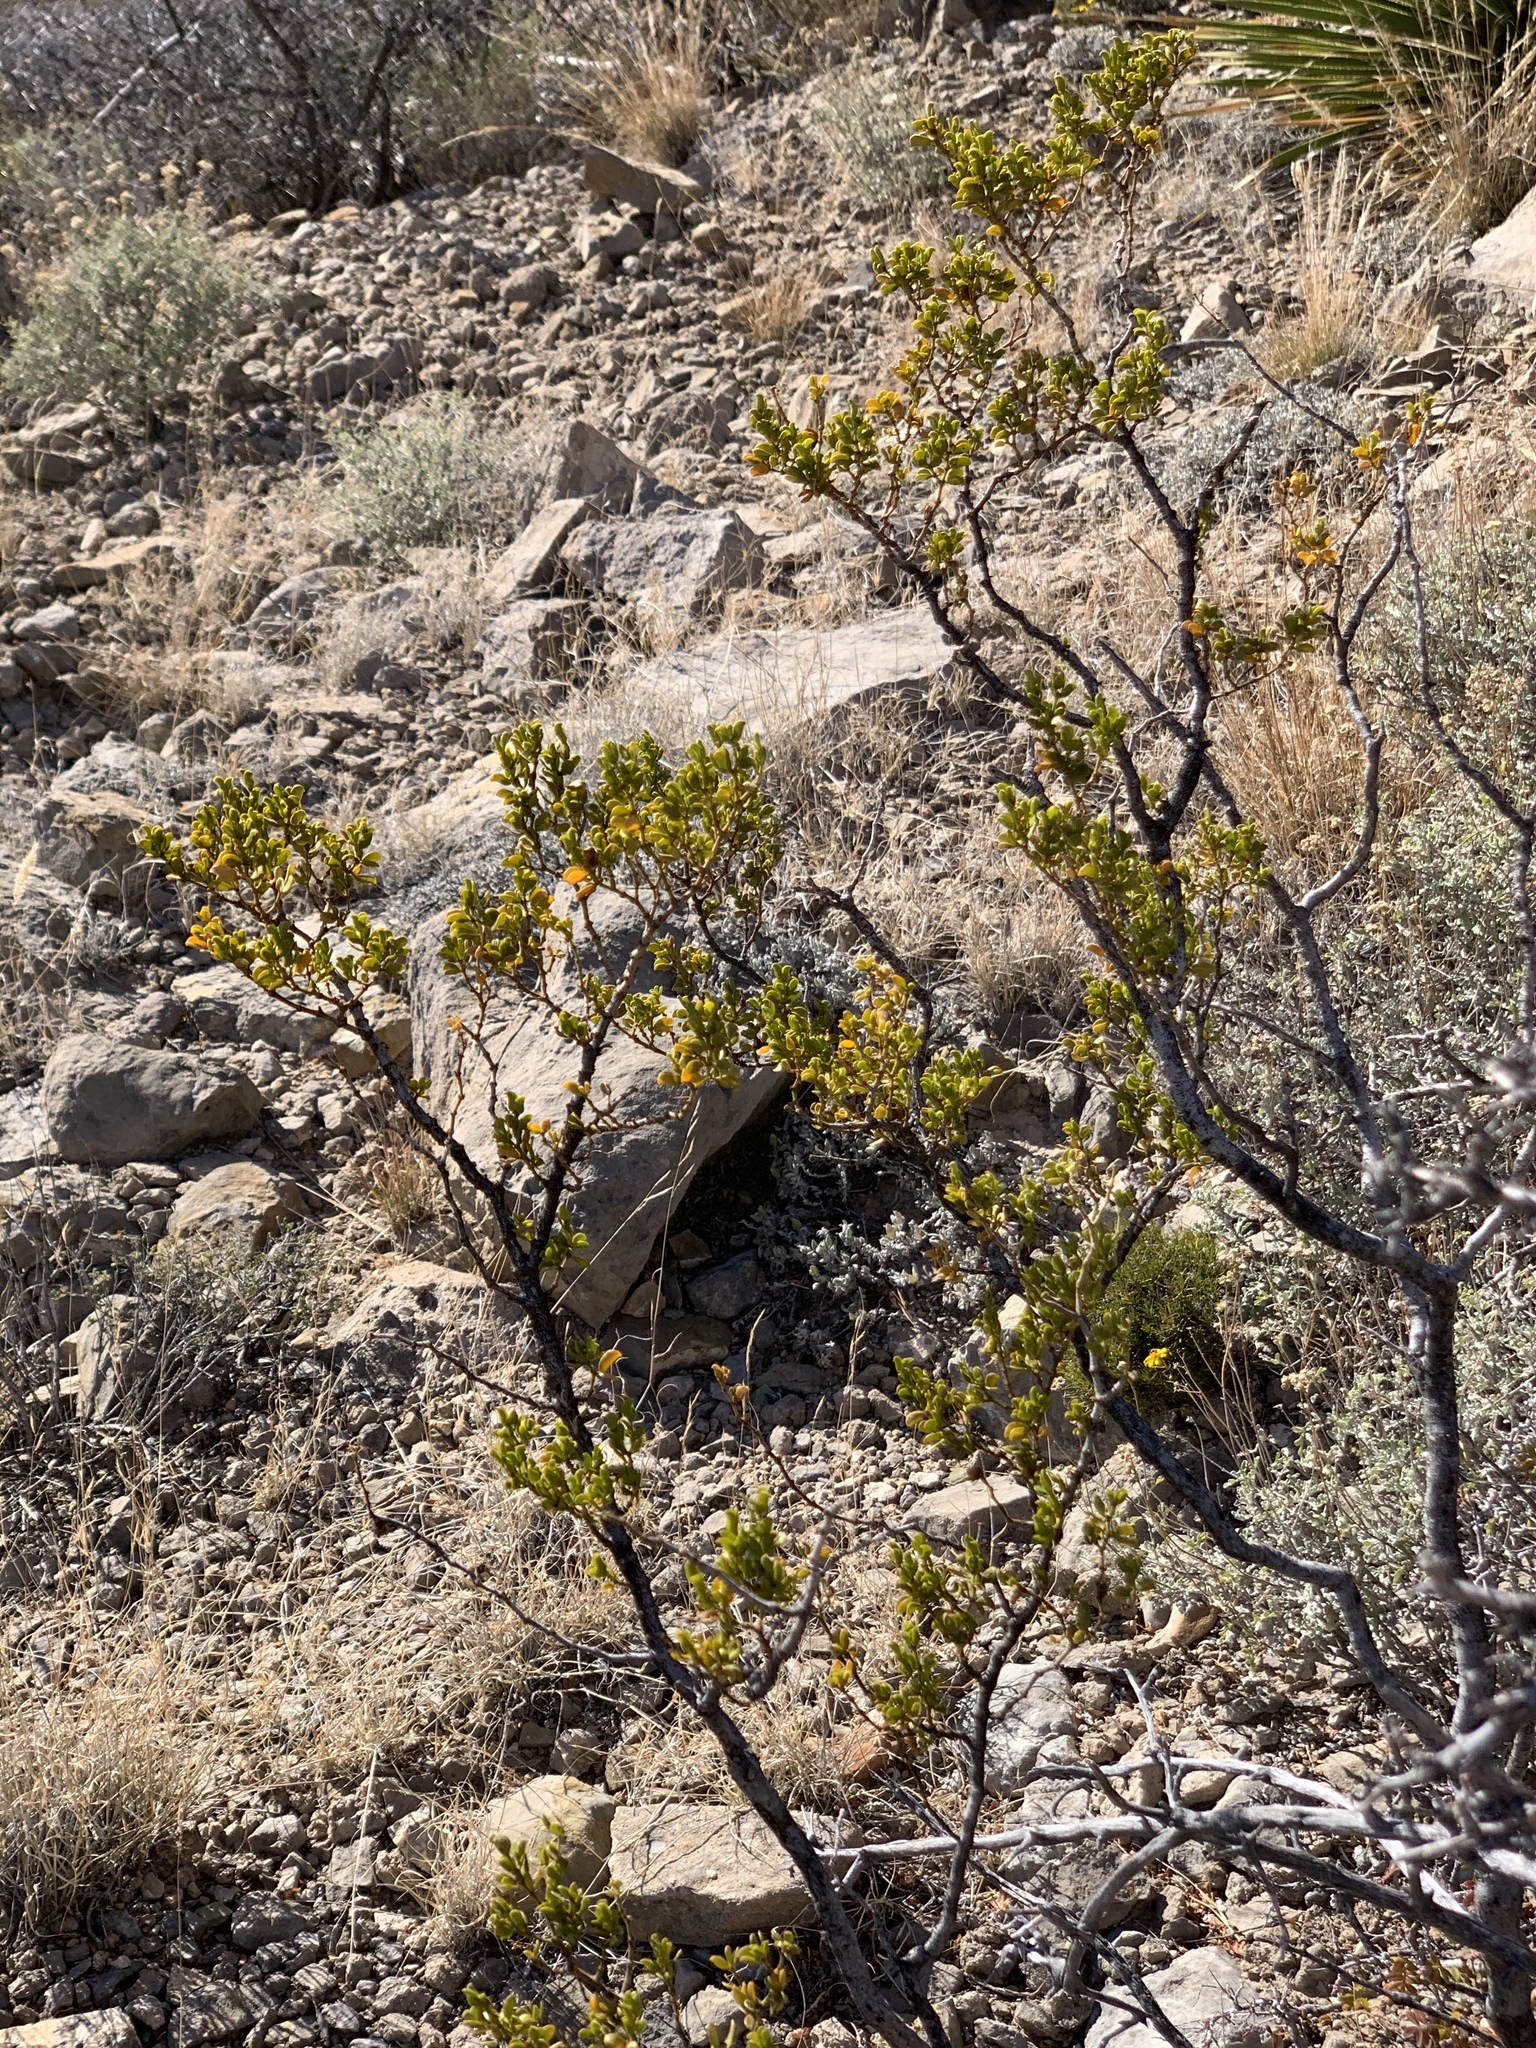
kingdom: Plantae
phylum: Tracheophyta
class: Magnoliopsida
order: Zygophyllales
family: Zygophyllaceae
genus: Larrea
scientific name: Larrea tridentata
